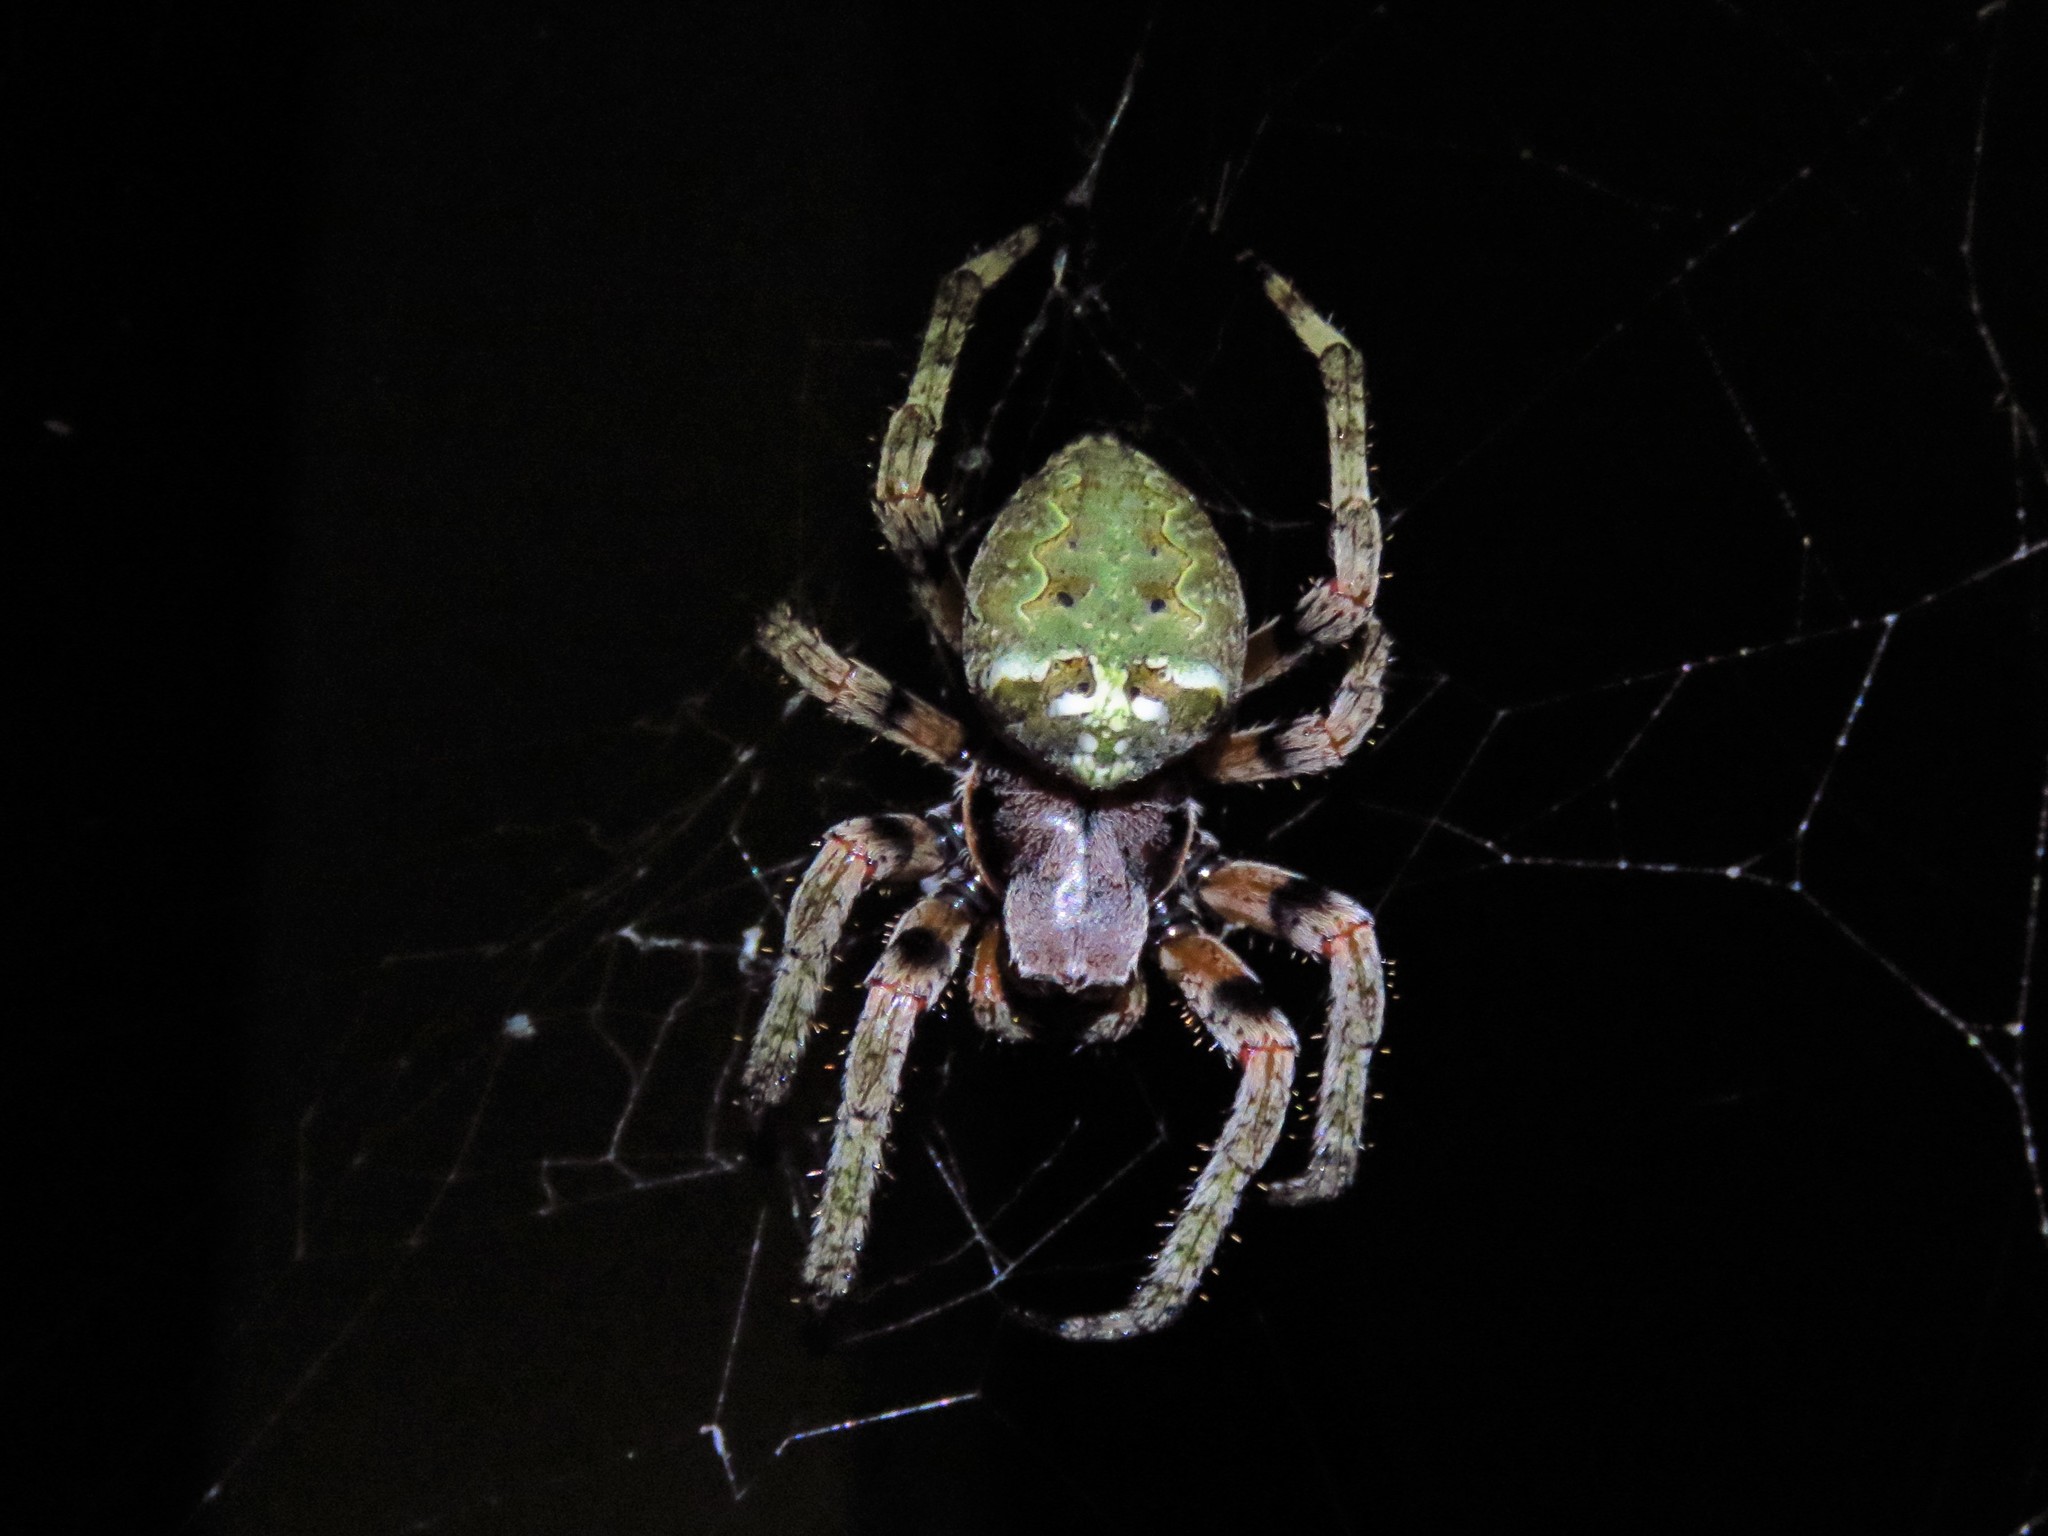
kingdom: Animalia
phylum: Arthropoda
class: Arachnida
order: Araneae
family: Araneidae
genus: Araneus
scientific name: Araneus bicentenarius
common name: Giant lichen orbweaver
